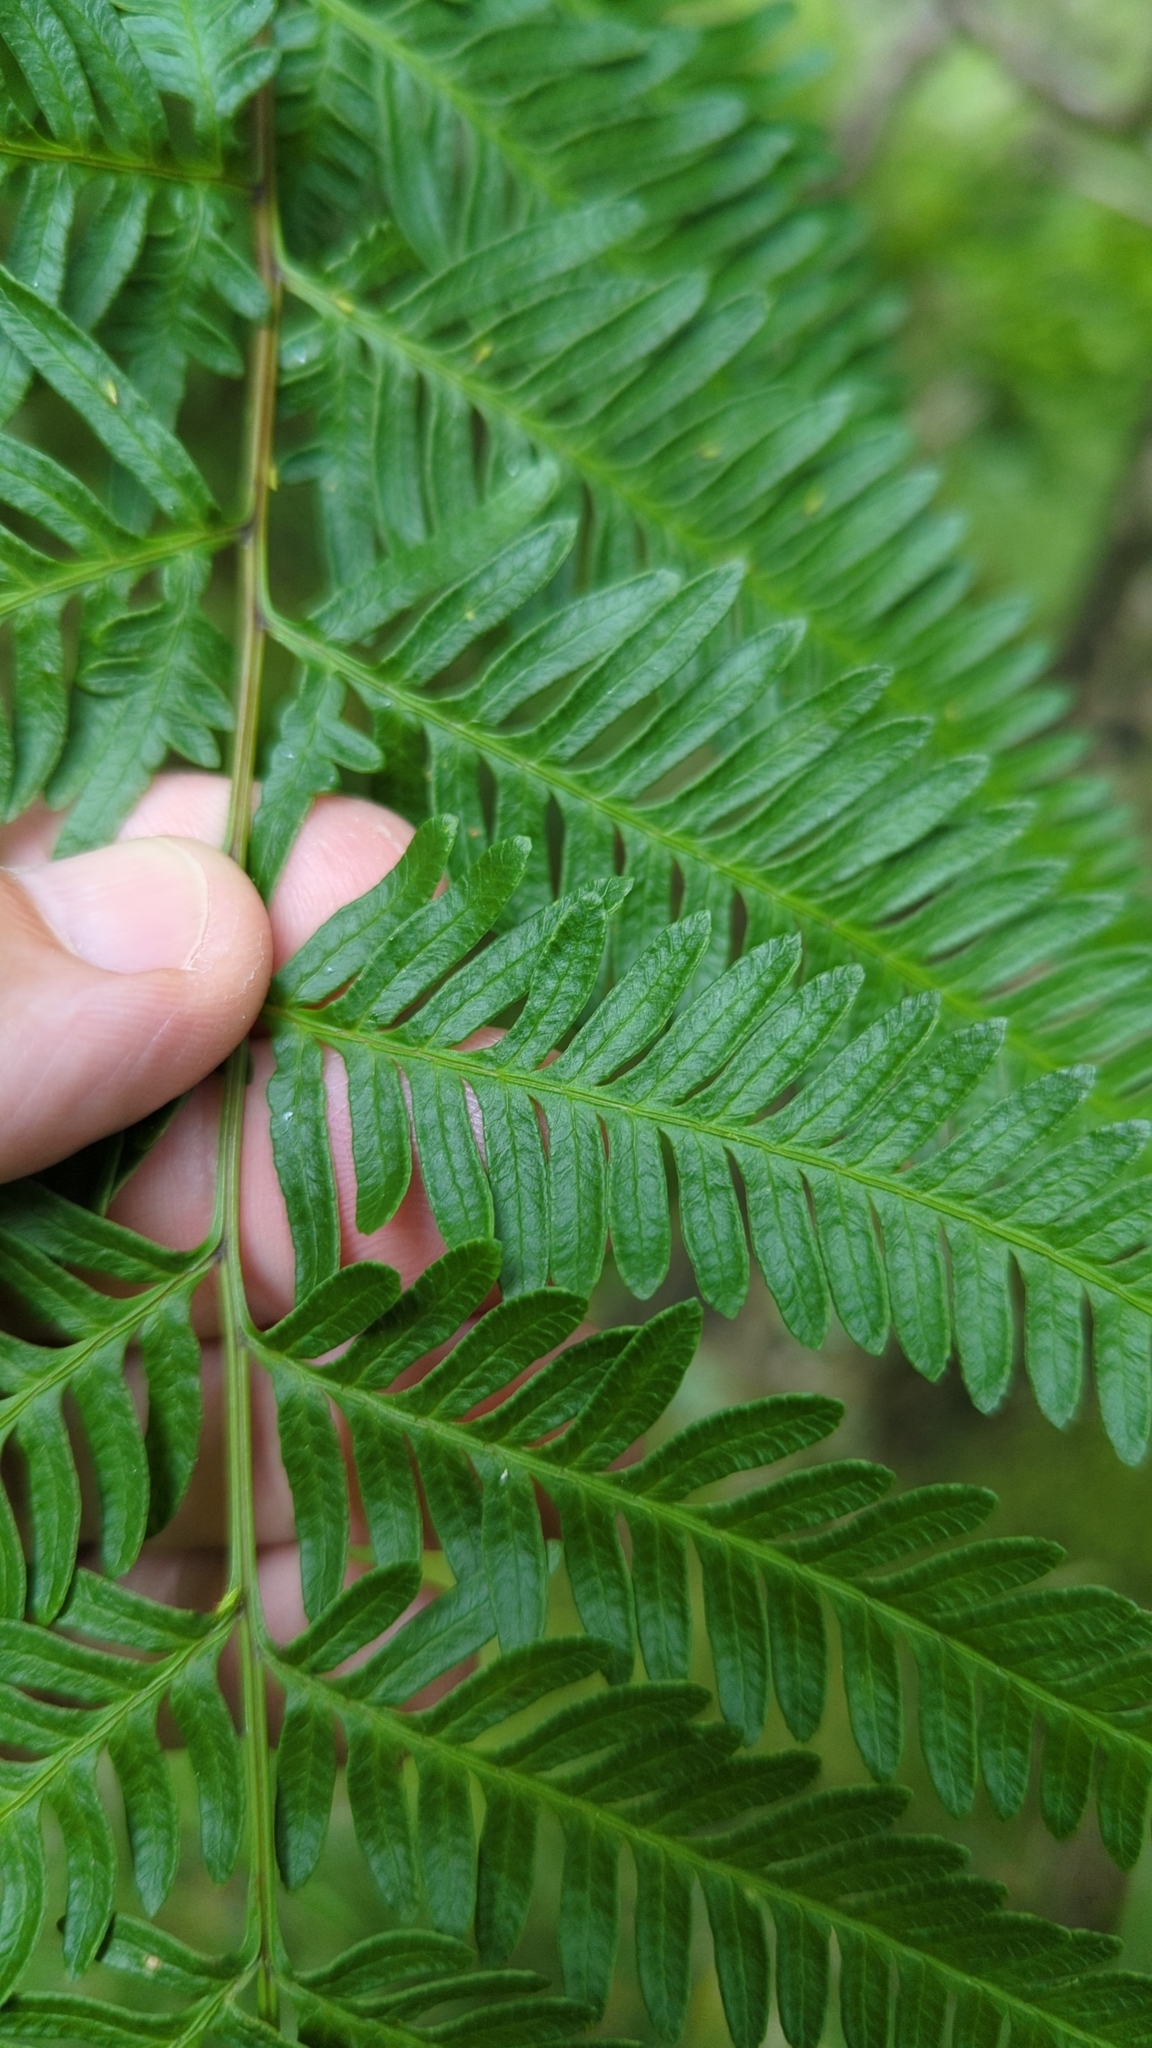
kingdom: Plantae
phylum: Tracheophyta
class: Polypodiopsida
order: Polypodiales
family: Pteridaceae
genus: Pteris
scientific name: Pteris tremula
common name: Australian brake
